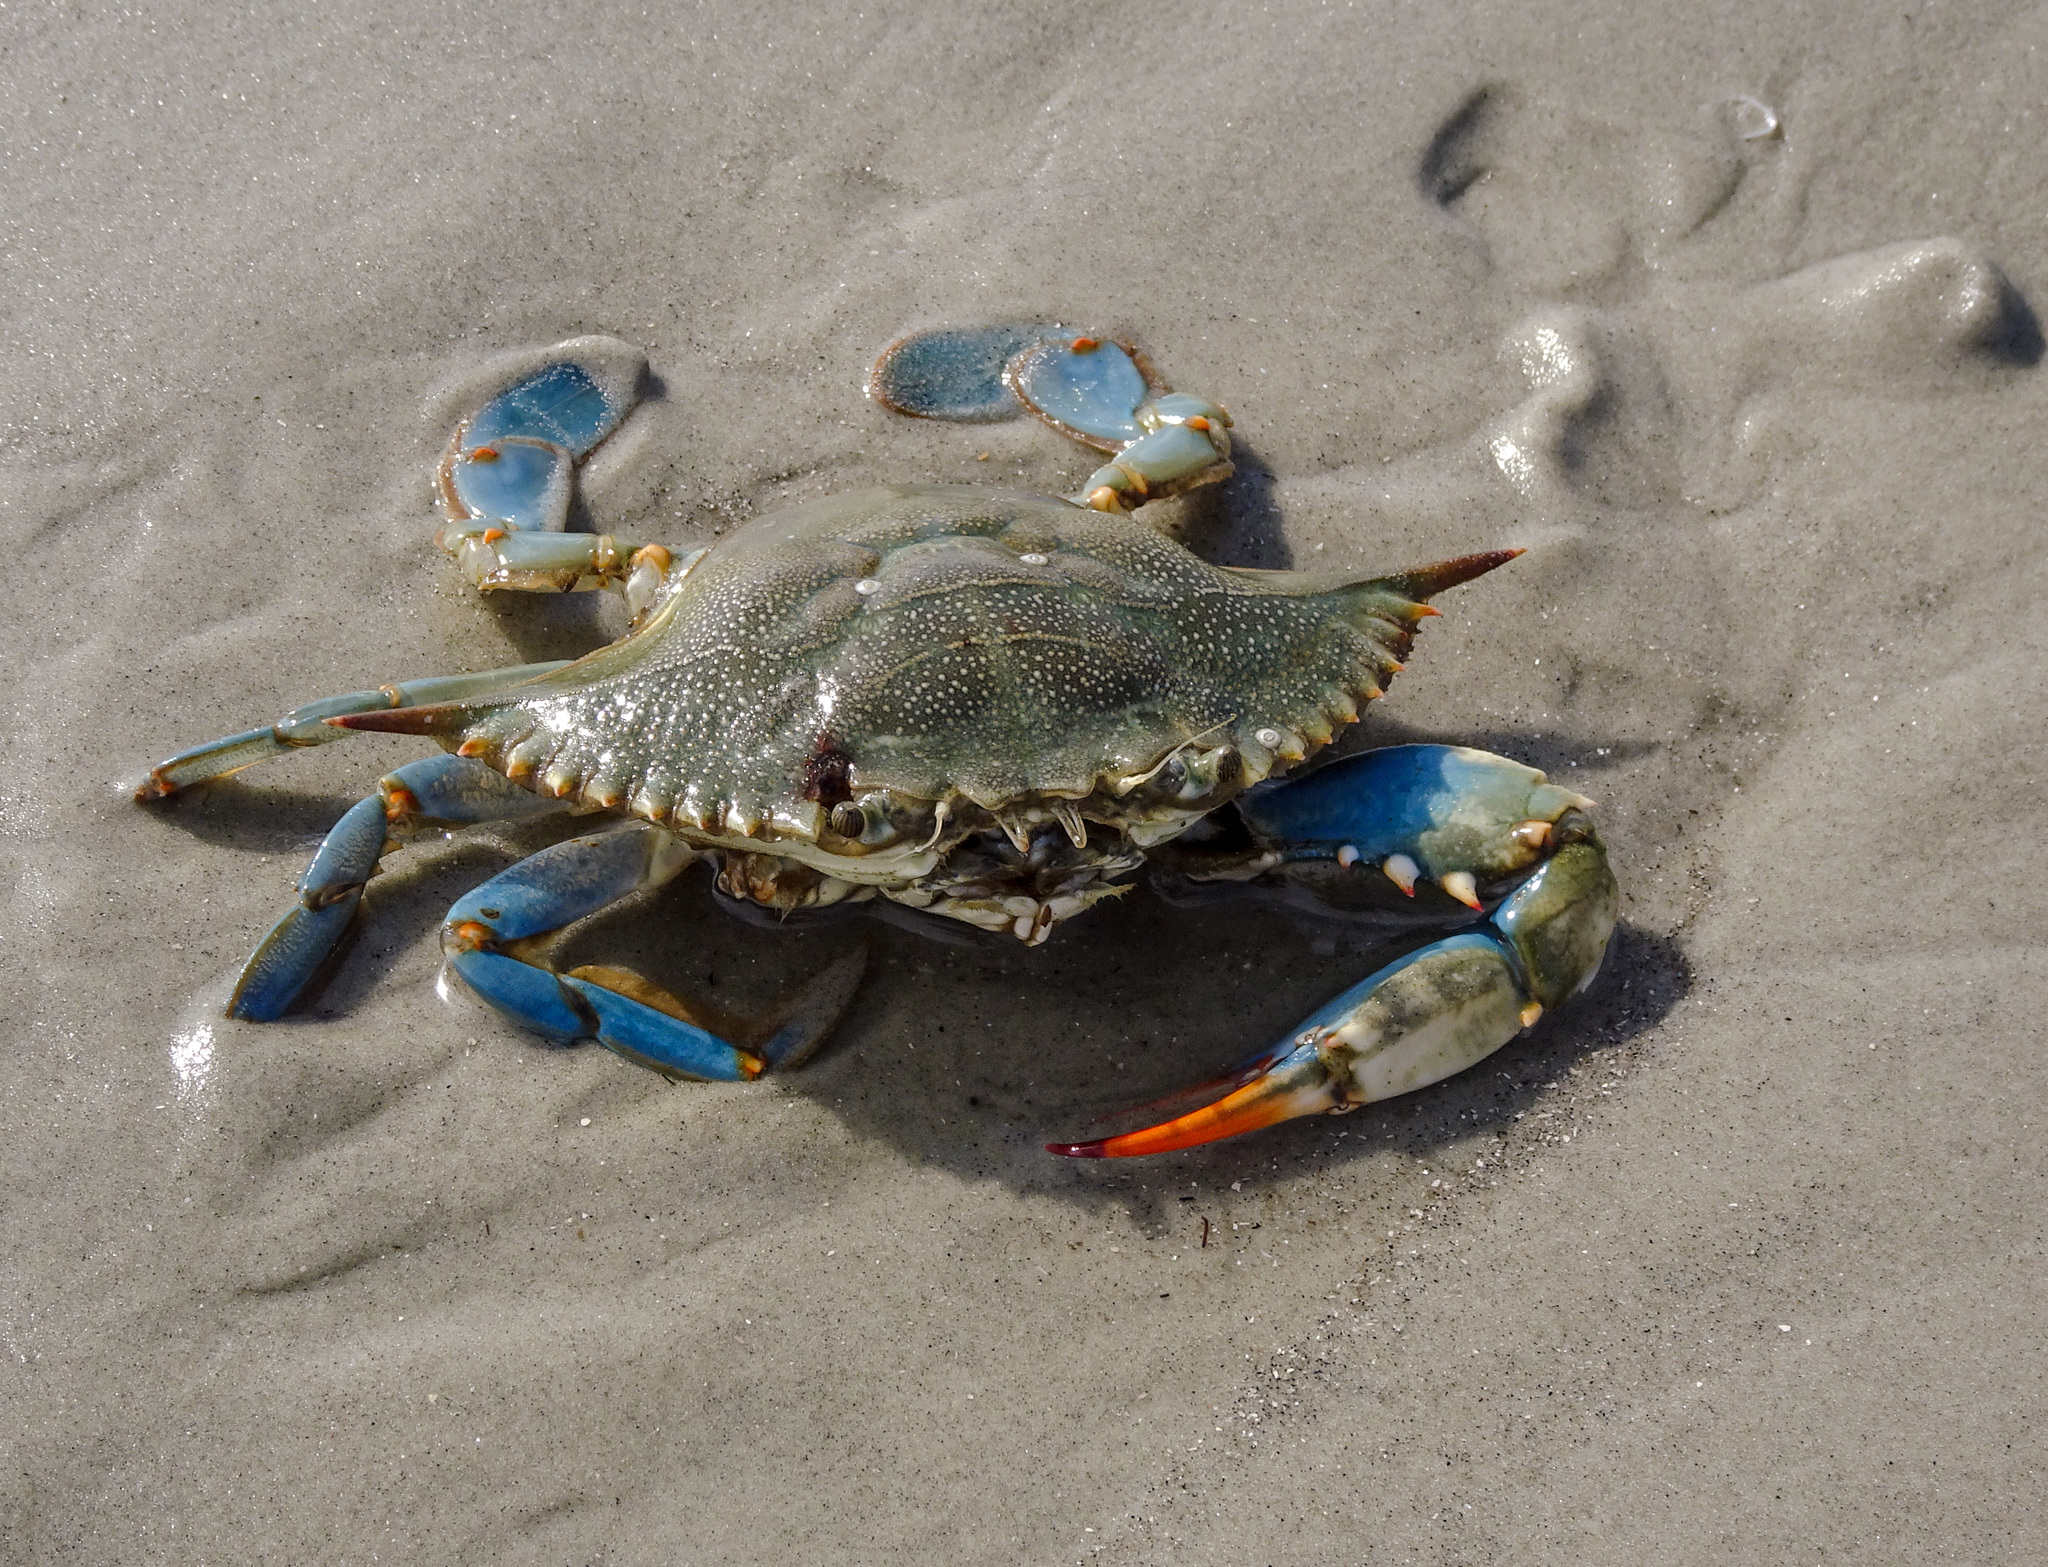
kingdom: Animalia
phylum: Arthropoda
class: Malacostraca
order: Decapoda
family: Portunidae
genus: Callinectes
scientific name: Callinectes sapidus
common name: Blue crab
